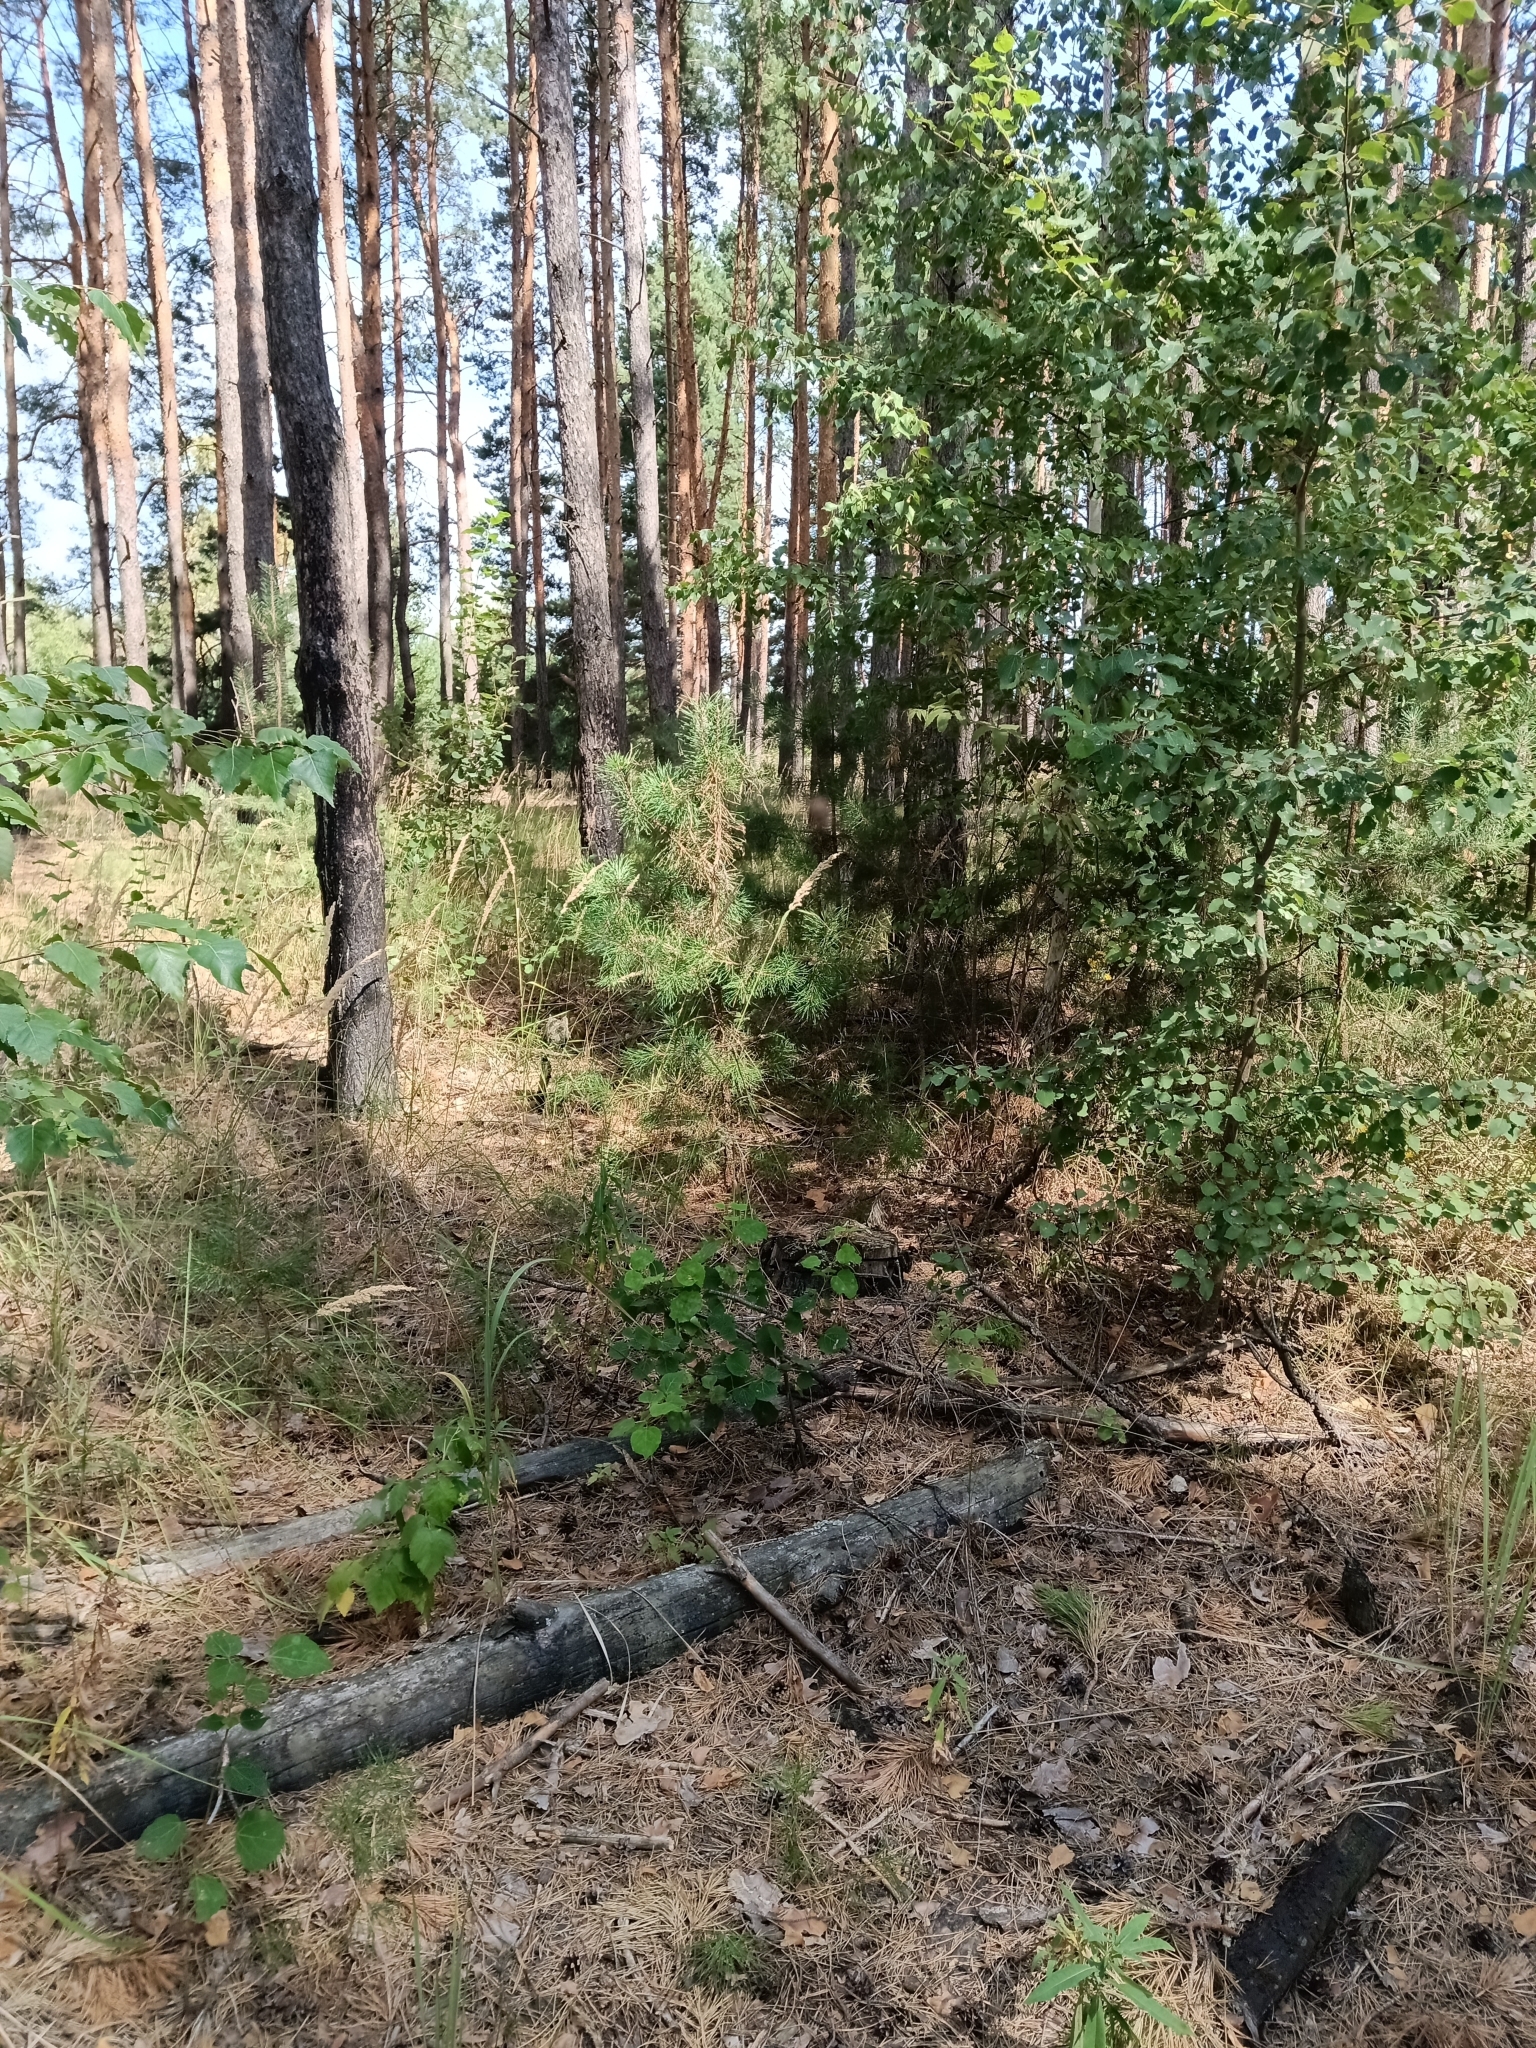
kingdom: Plantae
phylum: Tracheophyta
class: Pinopsida
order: Pinales
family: Pinaceae
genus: Pinus
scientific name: Pinus sylvestris
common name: Scots pine
